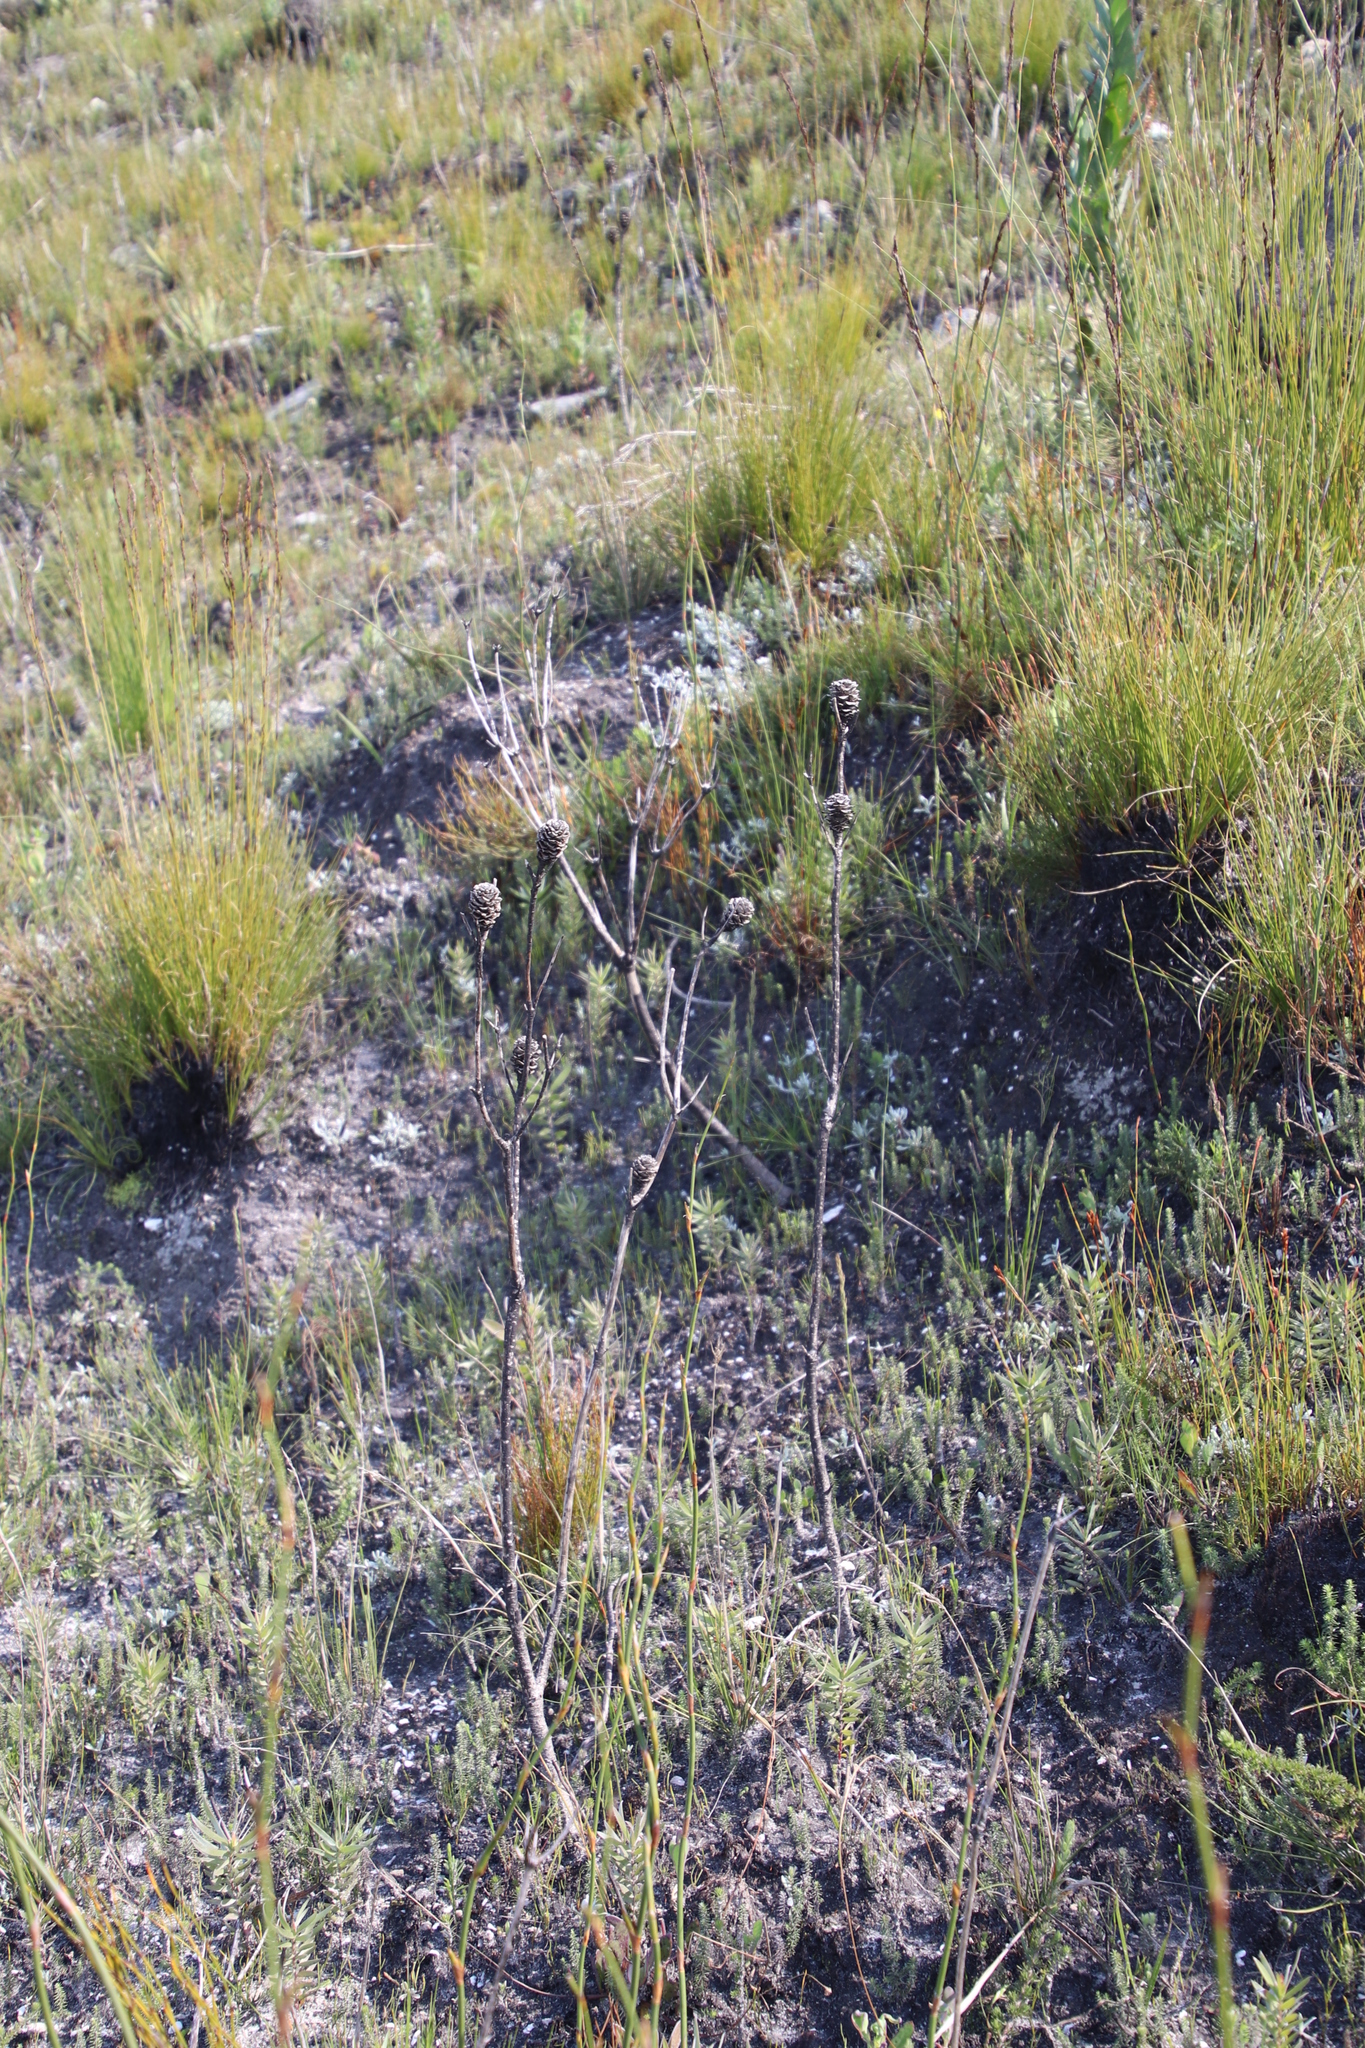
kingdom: Plantae
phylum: Tracheophyta
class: Magnoliopsida
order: Proteales
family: Proteaceae
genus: Leucadendron
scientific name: Leucadendron xanthoconus
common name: Sickle-leaf conebush
